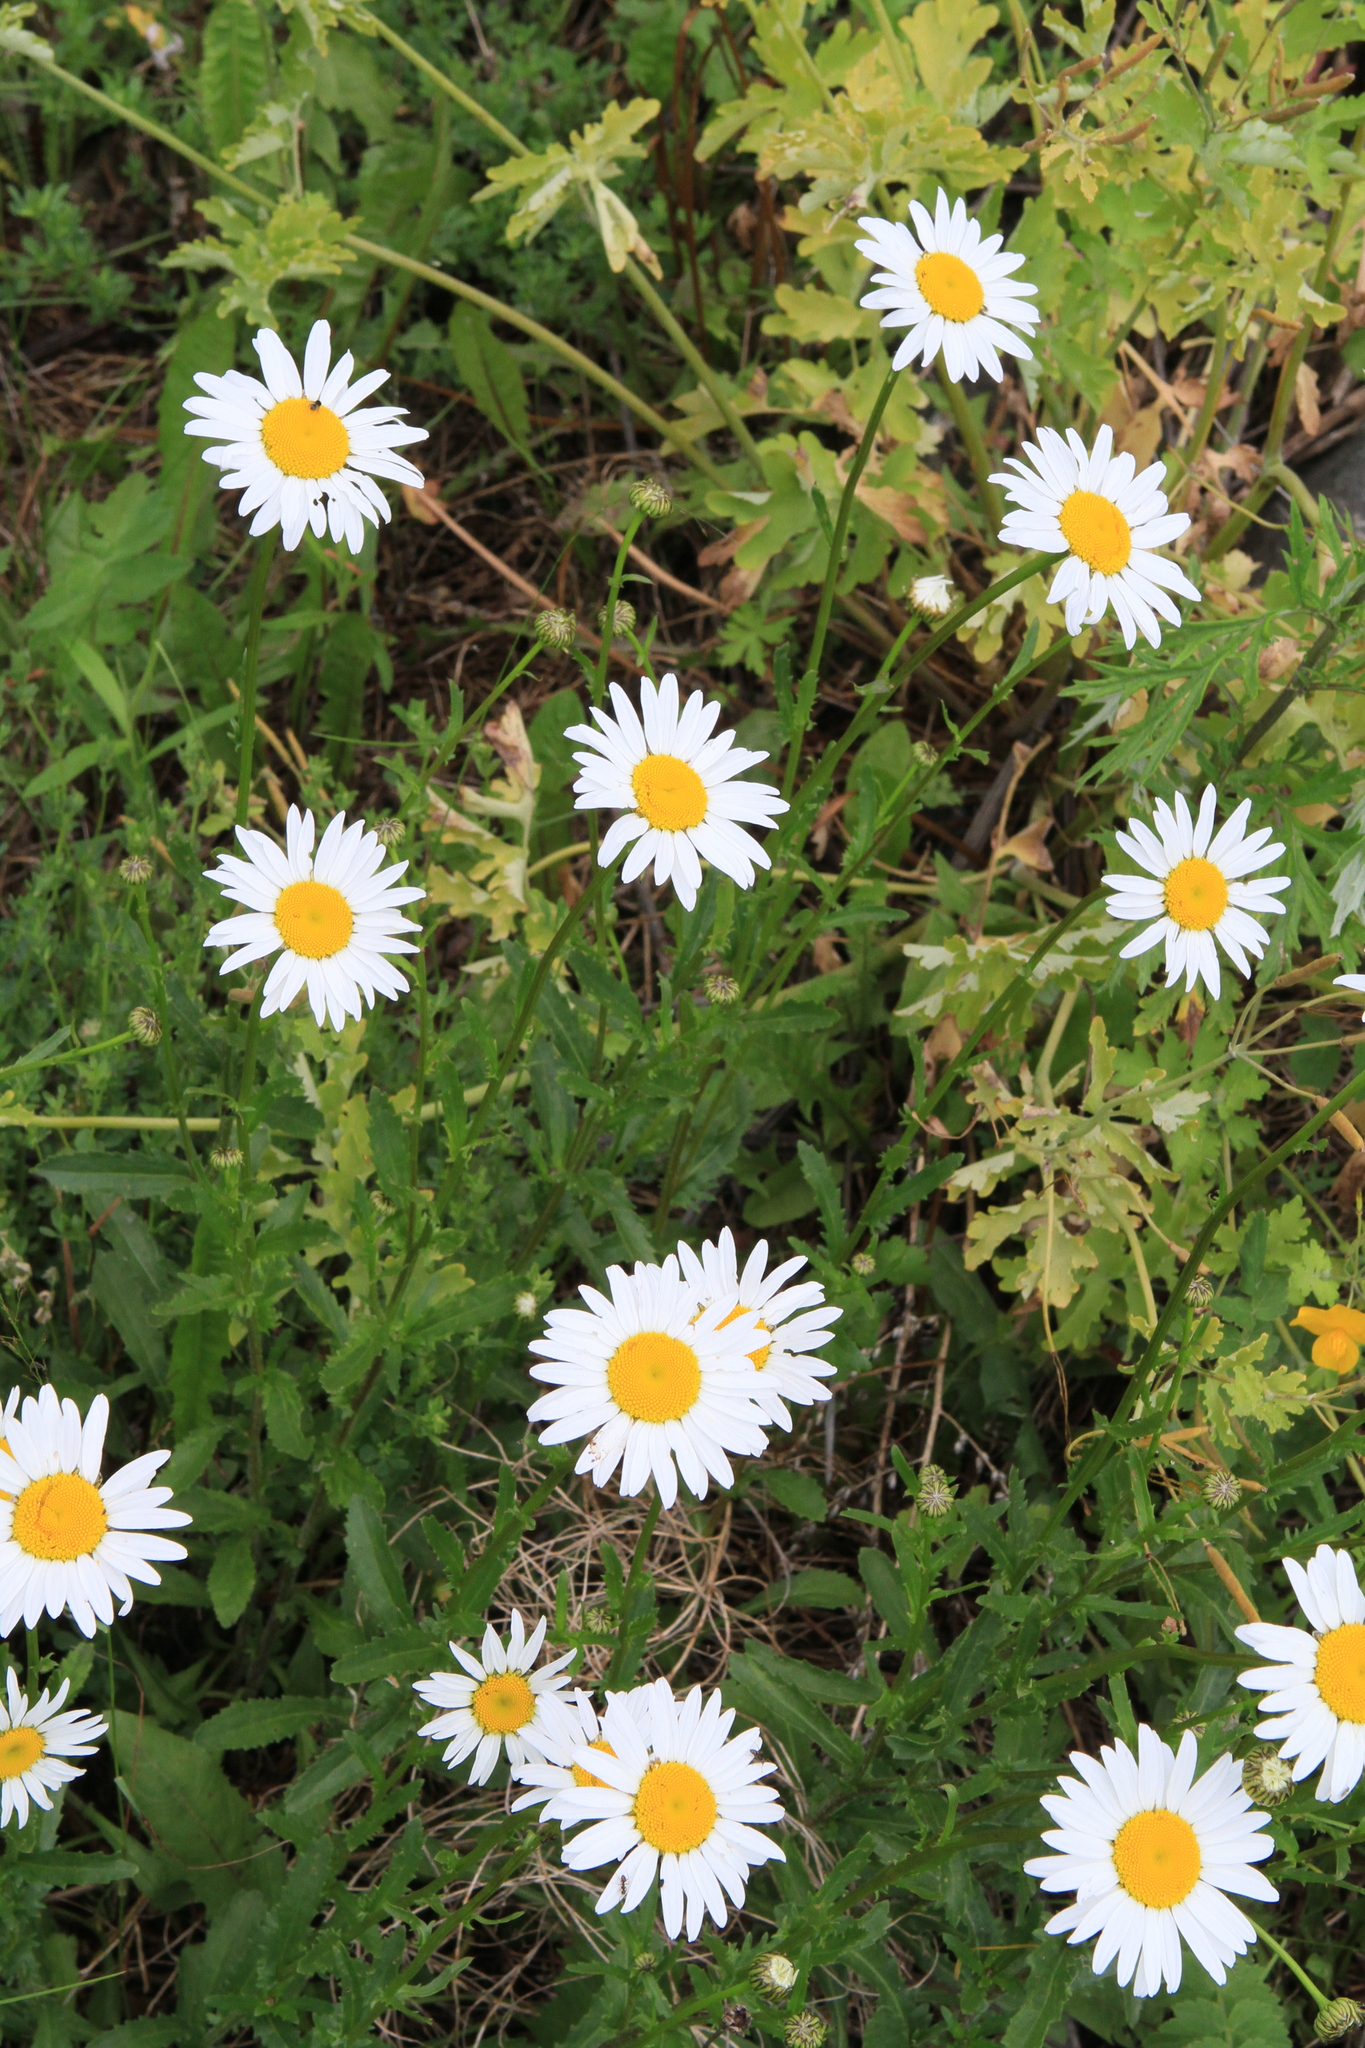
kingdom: Plantae
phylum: Tracheophyta
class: Magnoliopsida
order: Asterales
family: Asteraceae
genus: Leucanthemum
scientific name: Leucanthemum ircutianum
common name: Daisy
